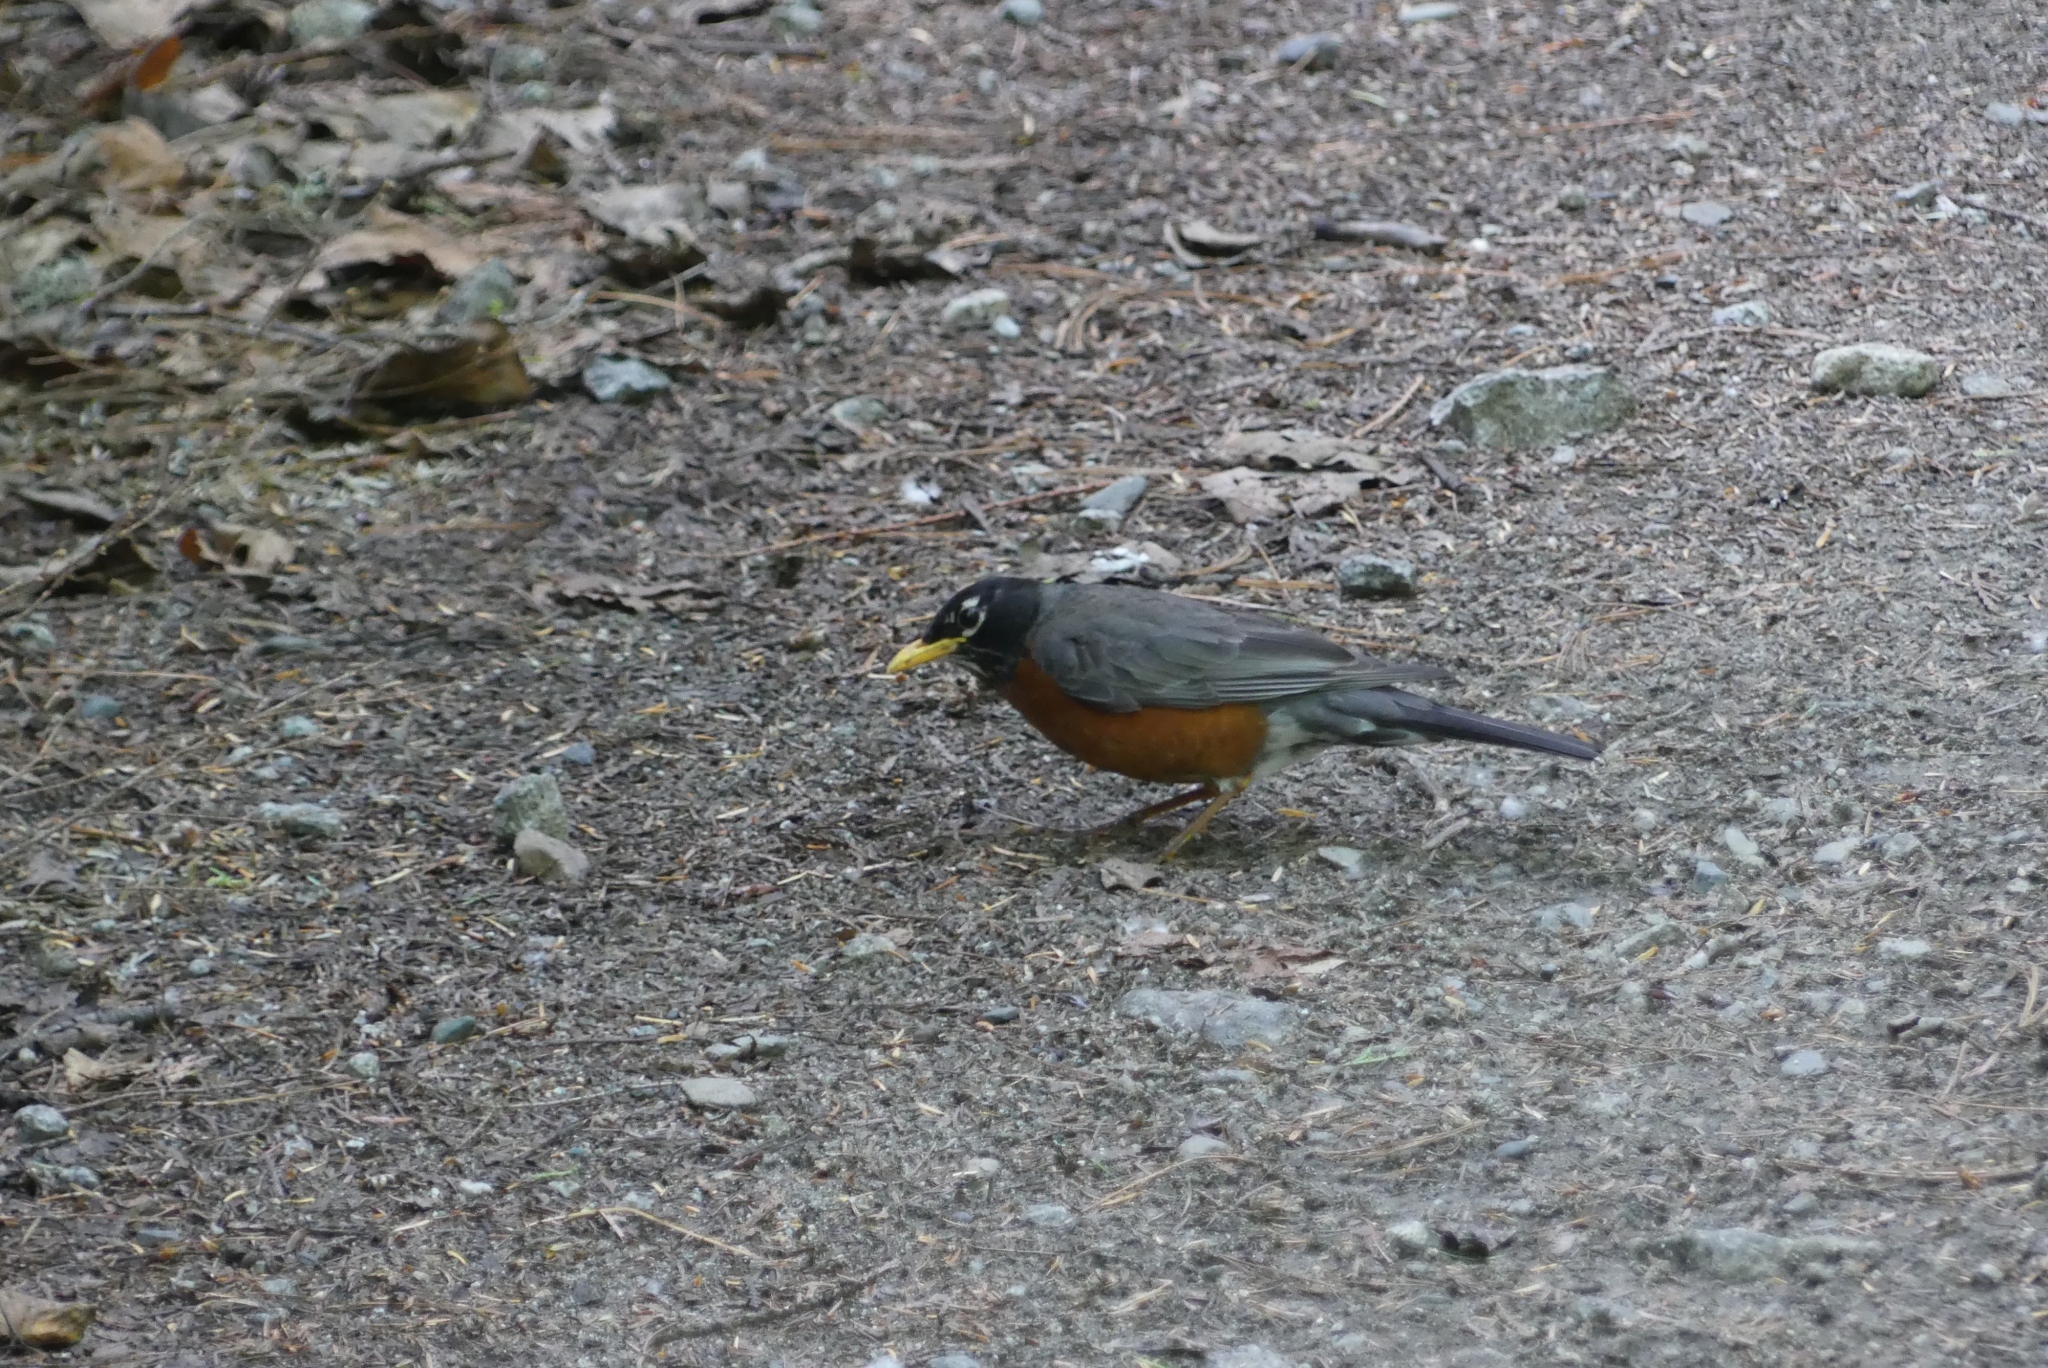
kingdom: Animalia
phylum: Chordata
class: Aves
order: Passeriformes
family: Turdidae
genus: Turdus
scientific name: Turdus migratorius
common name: American robin
